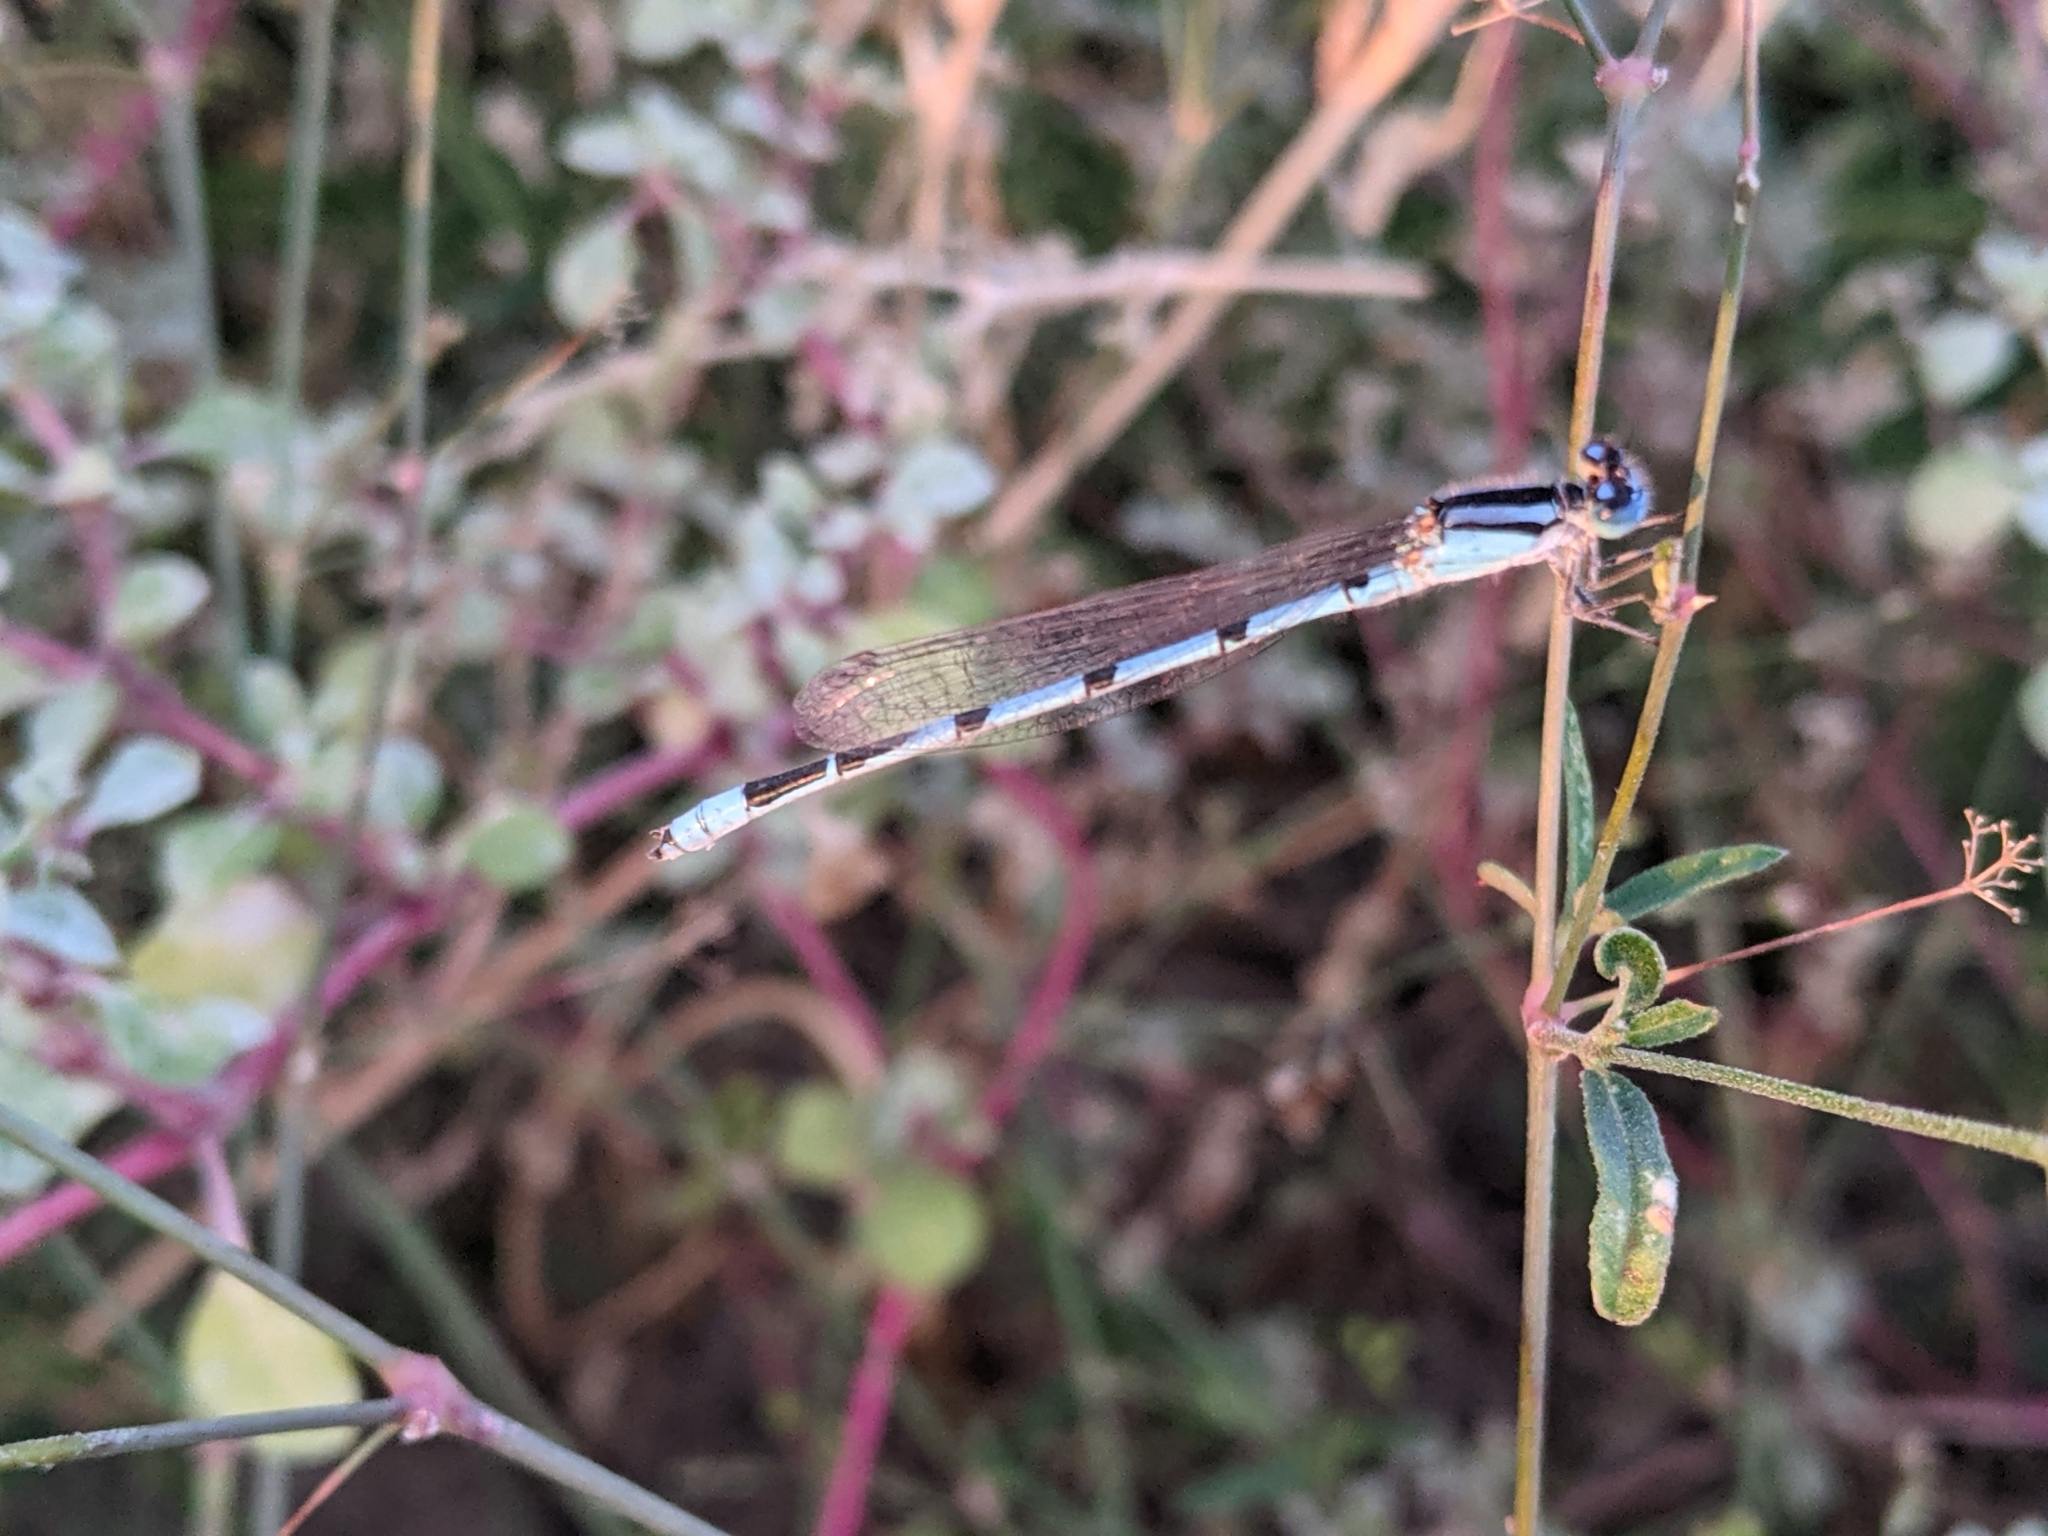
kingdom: Animalia
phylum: Arthropoda
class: Insecta
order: Odonata
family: Coenagrionidae
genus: Enallagma
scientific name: Enallagma civile
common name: Damselfly
